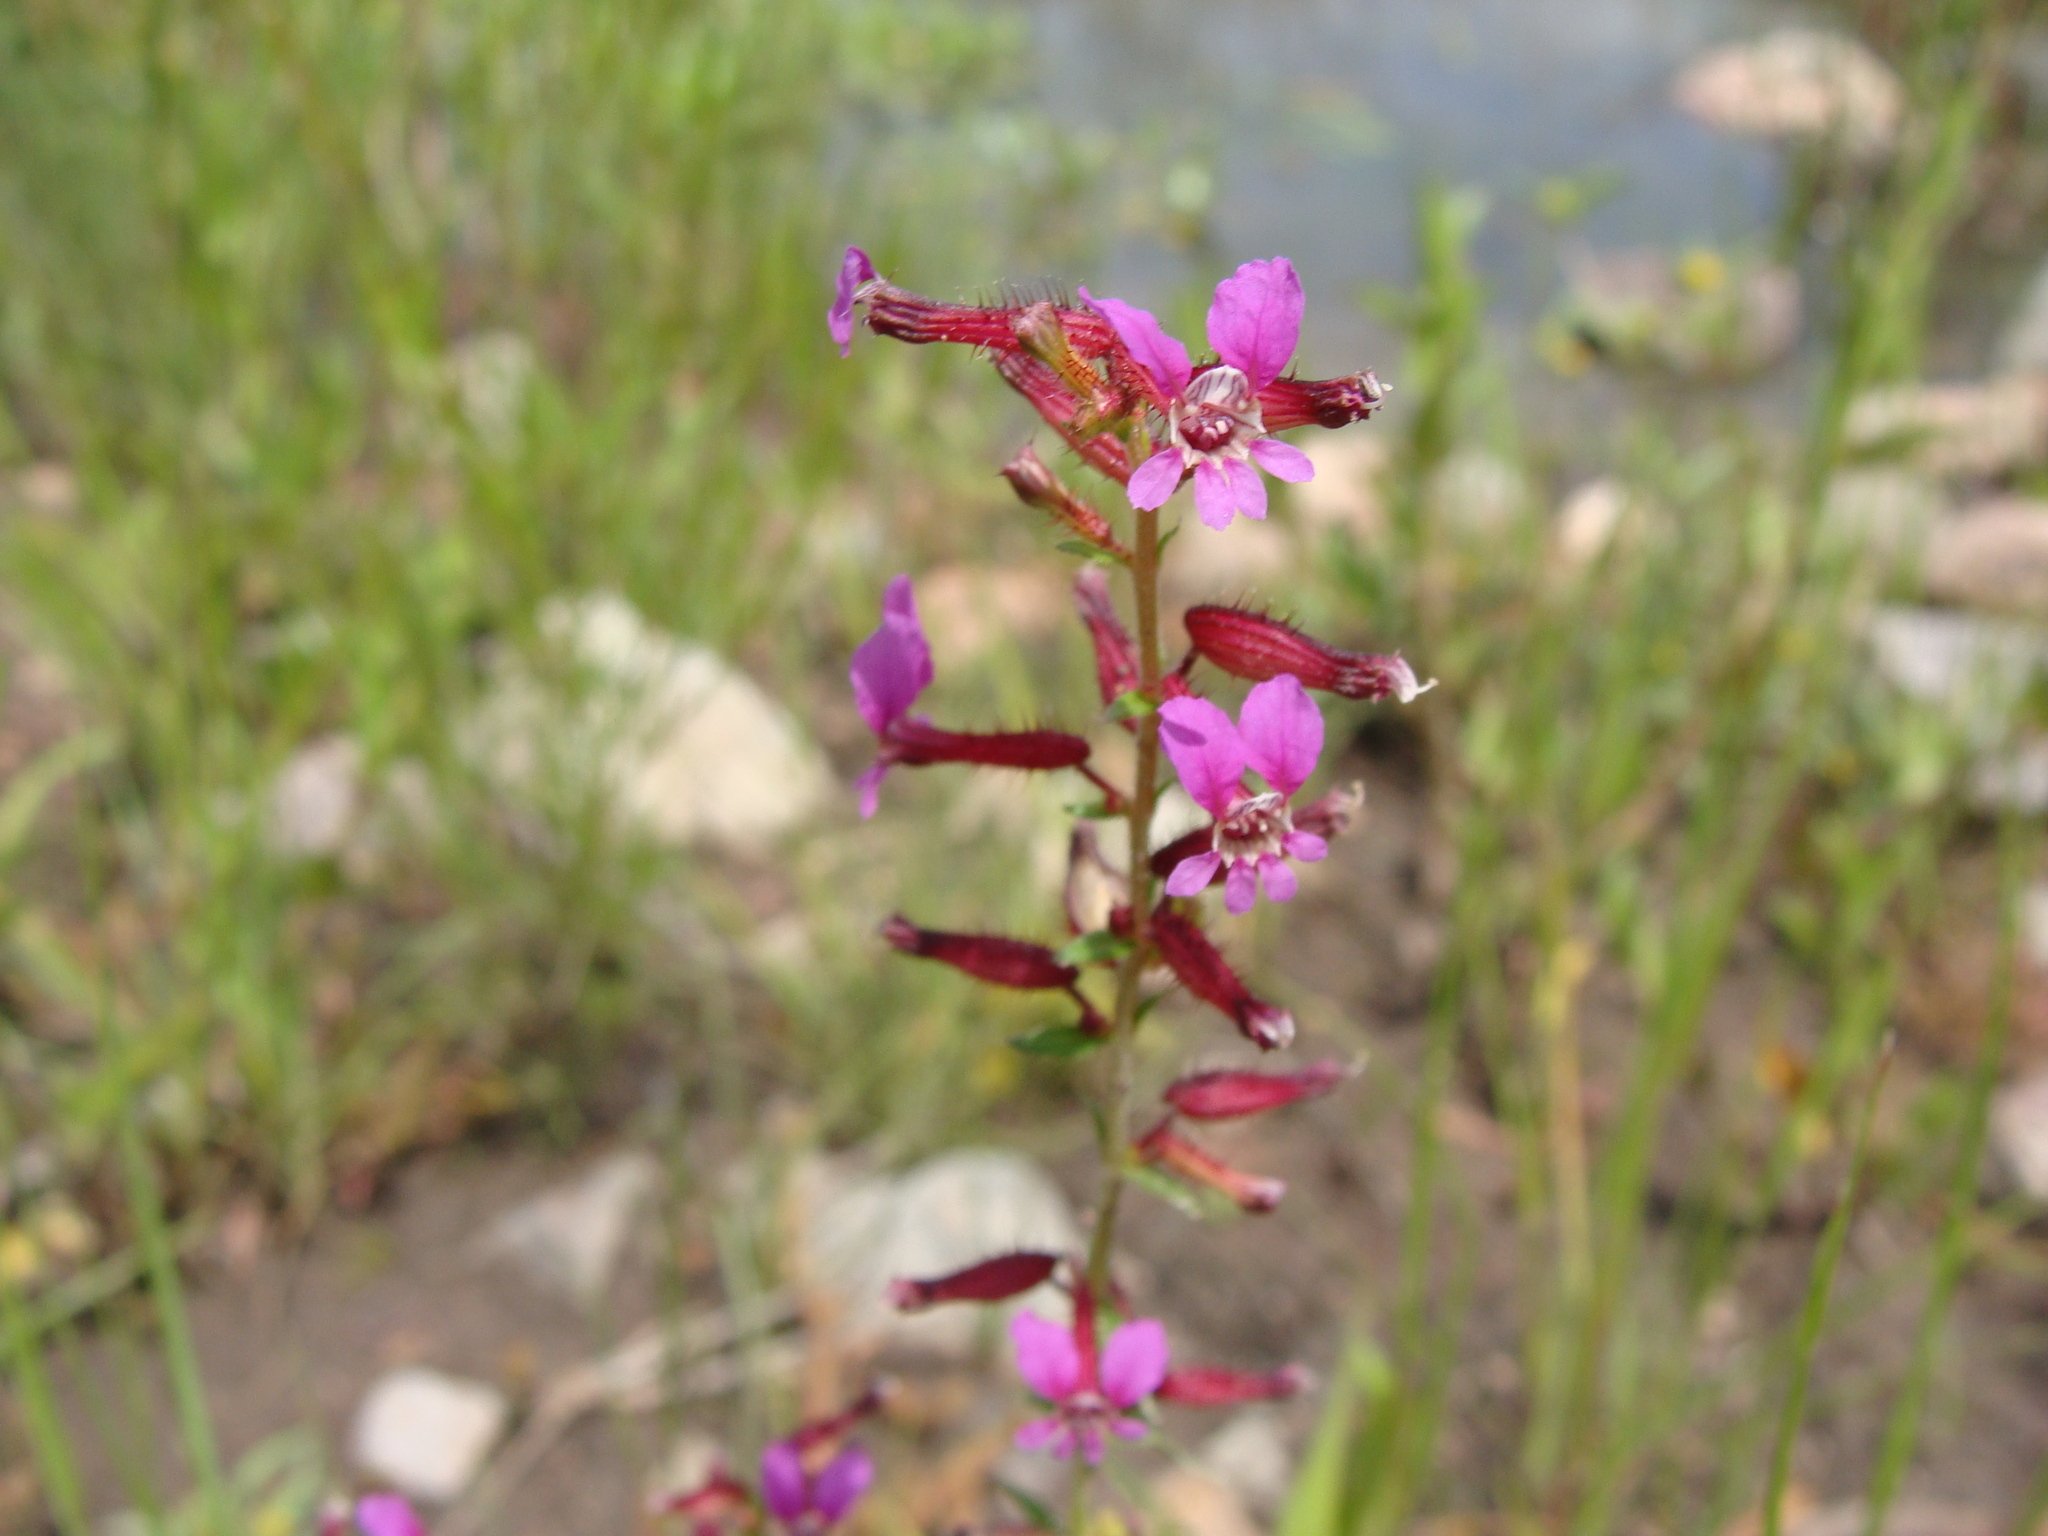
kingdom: Plantae
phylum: Tracheophyta
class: Magnoliopsida
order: Myrtales
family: Lythraceae
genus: Cuphea
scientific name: Cuphea wrightii
